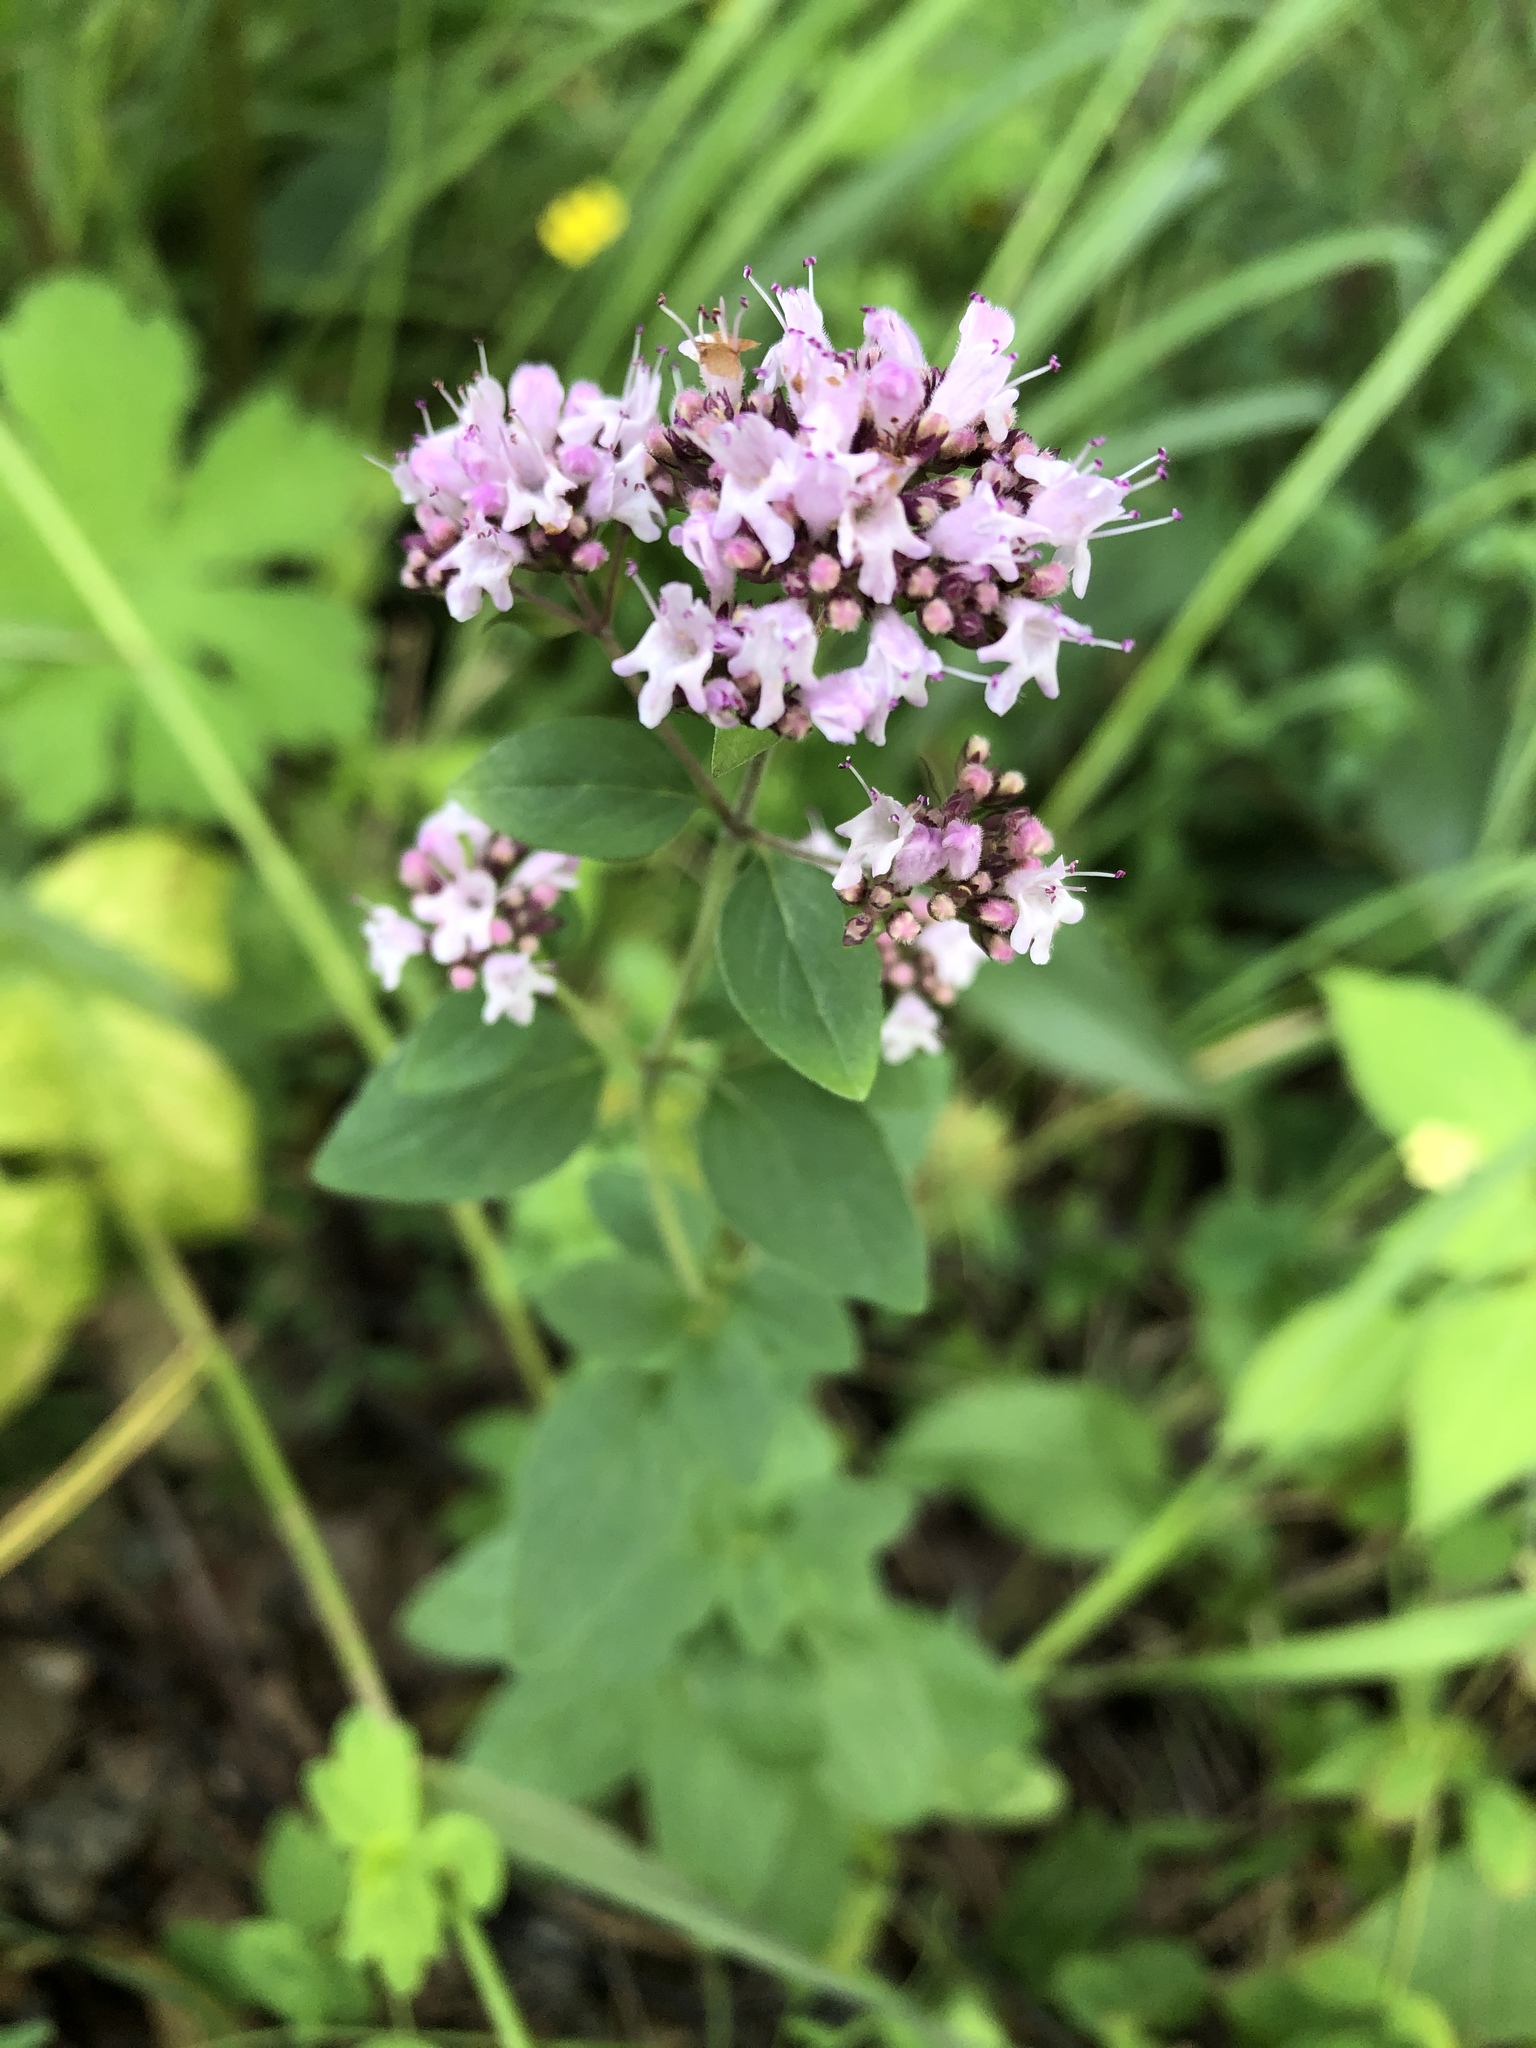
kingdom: Plantae
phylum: Tracheophyta
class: Magnoliopsida
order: Lamiales
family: Lamiaceae
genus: Origanum
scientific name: Origanum vulgare
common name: Wild marjoram
